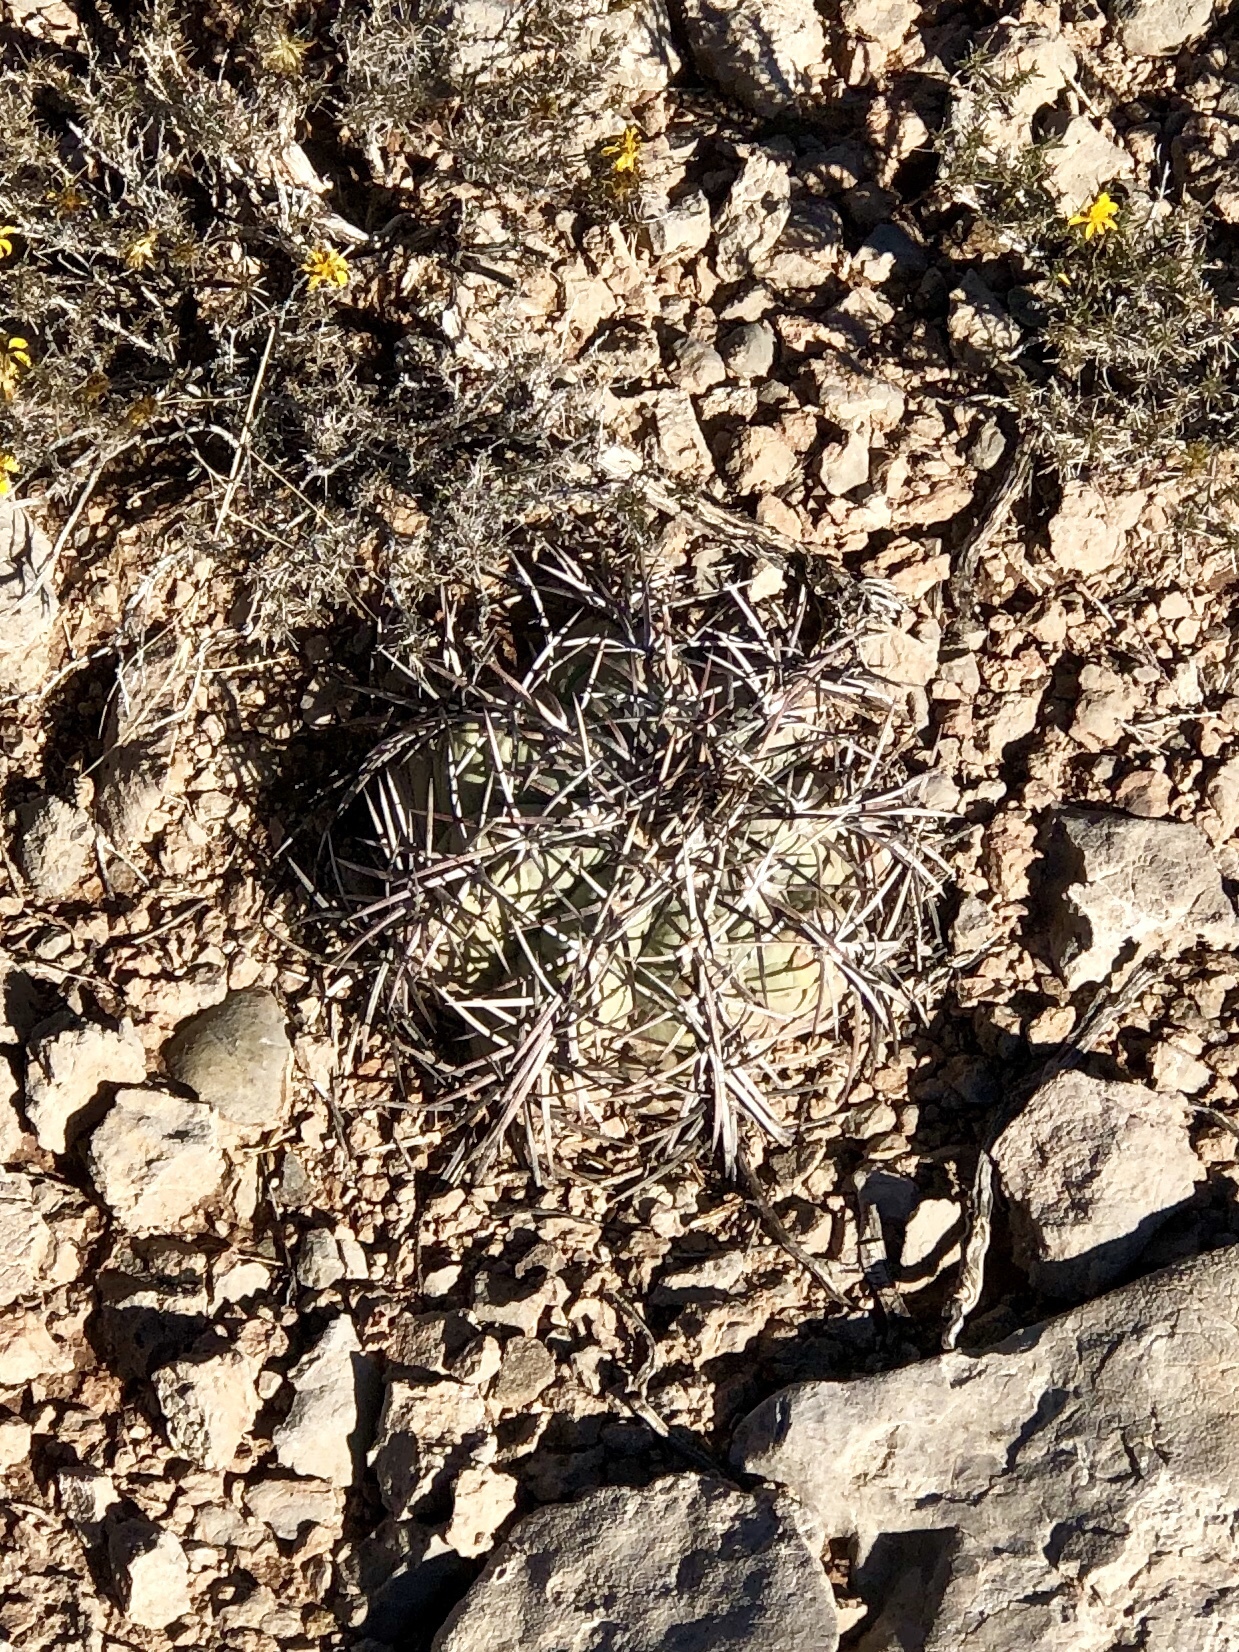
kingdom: Plantae
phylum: Tracheophyta
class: Magnoliopsida
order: Caryophyllales
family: Cactaceae
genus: Echinocactus
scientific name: Echinocactus horizonthalonius
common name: Devilshead
